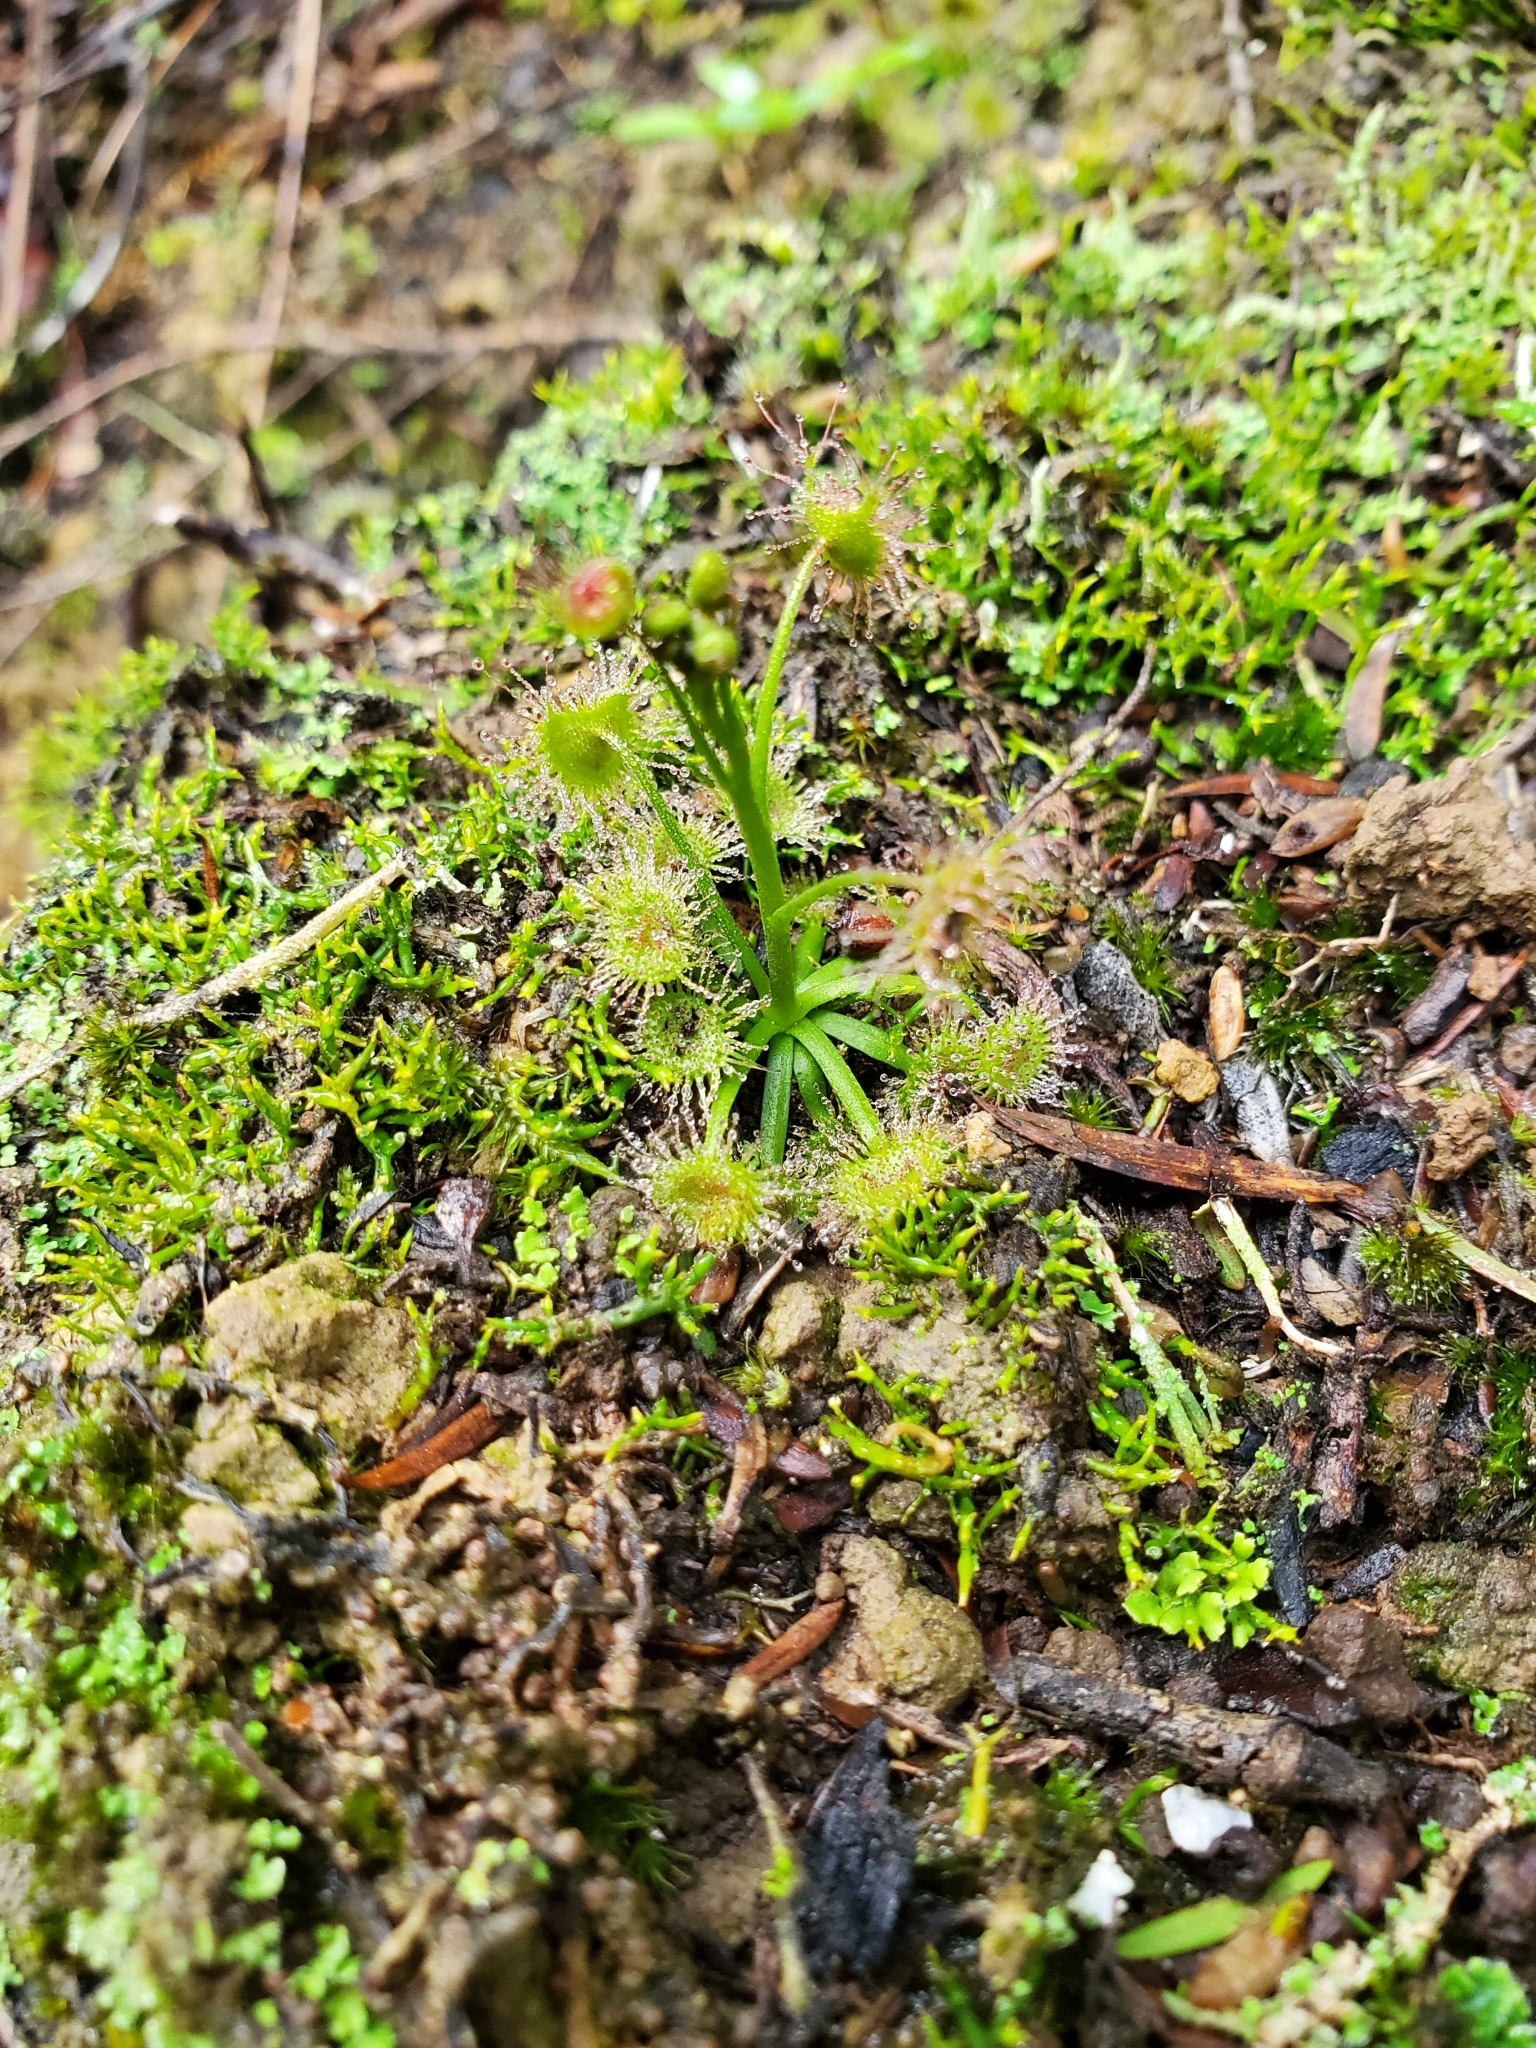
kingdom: Plantae
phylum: Tracheophyta
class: Magnoliopsida
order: Caryophyllales
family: Droseraceae
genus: Drosera
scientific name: Drosera peltata
